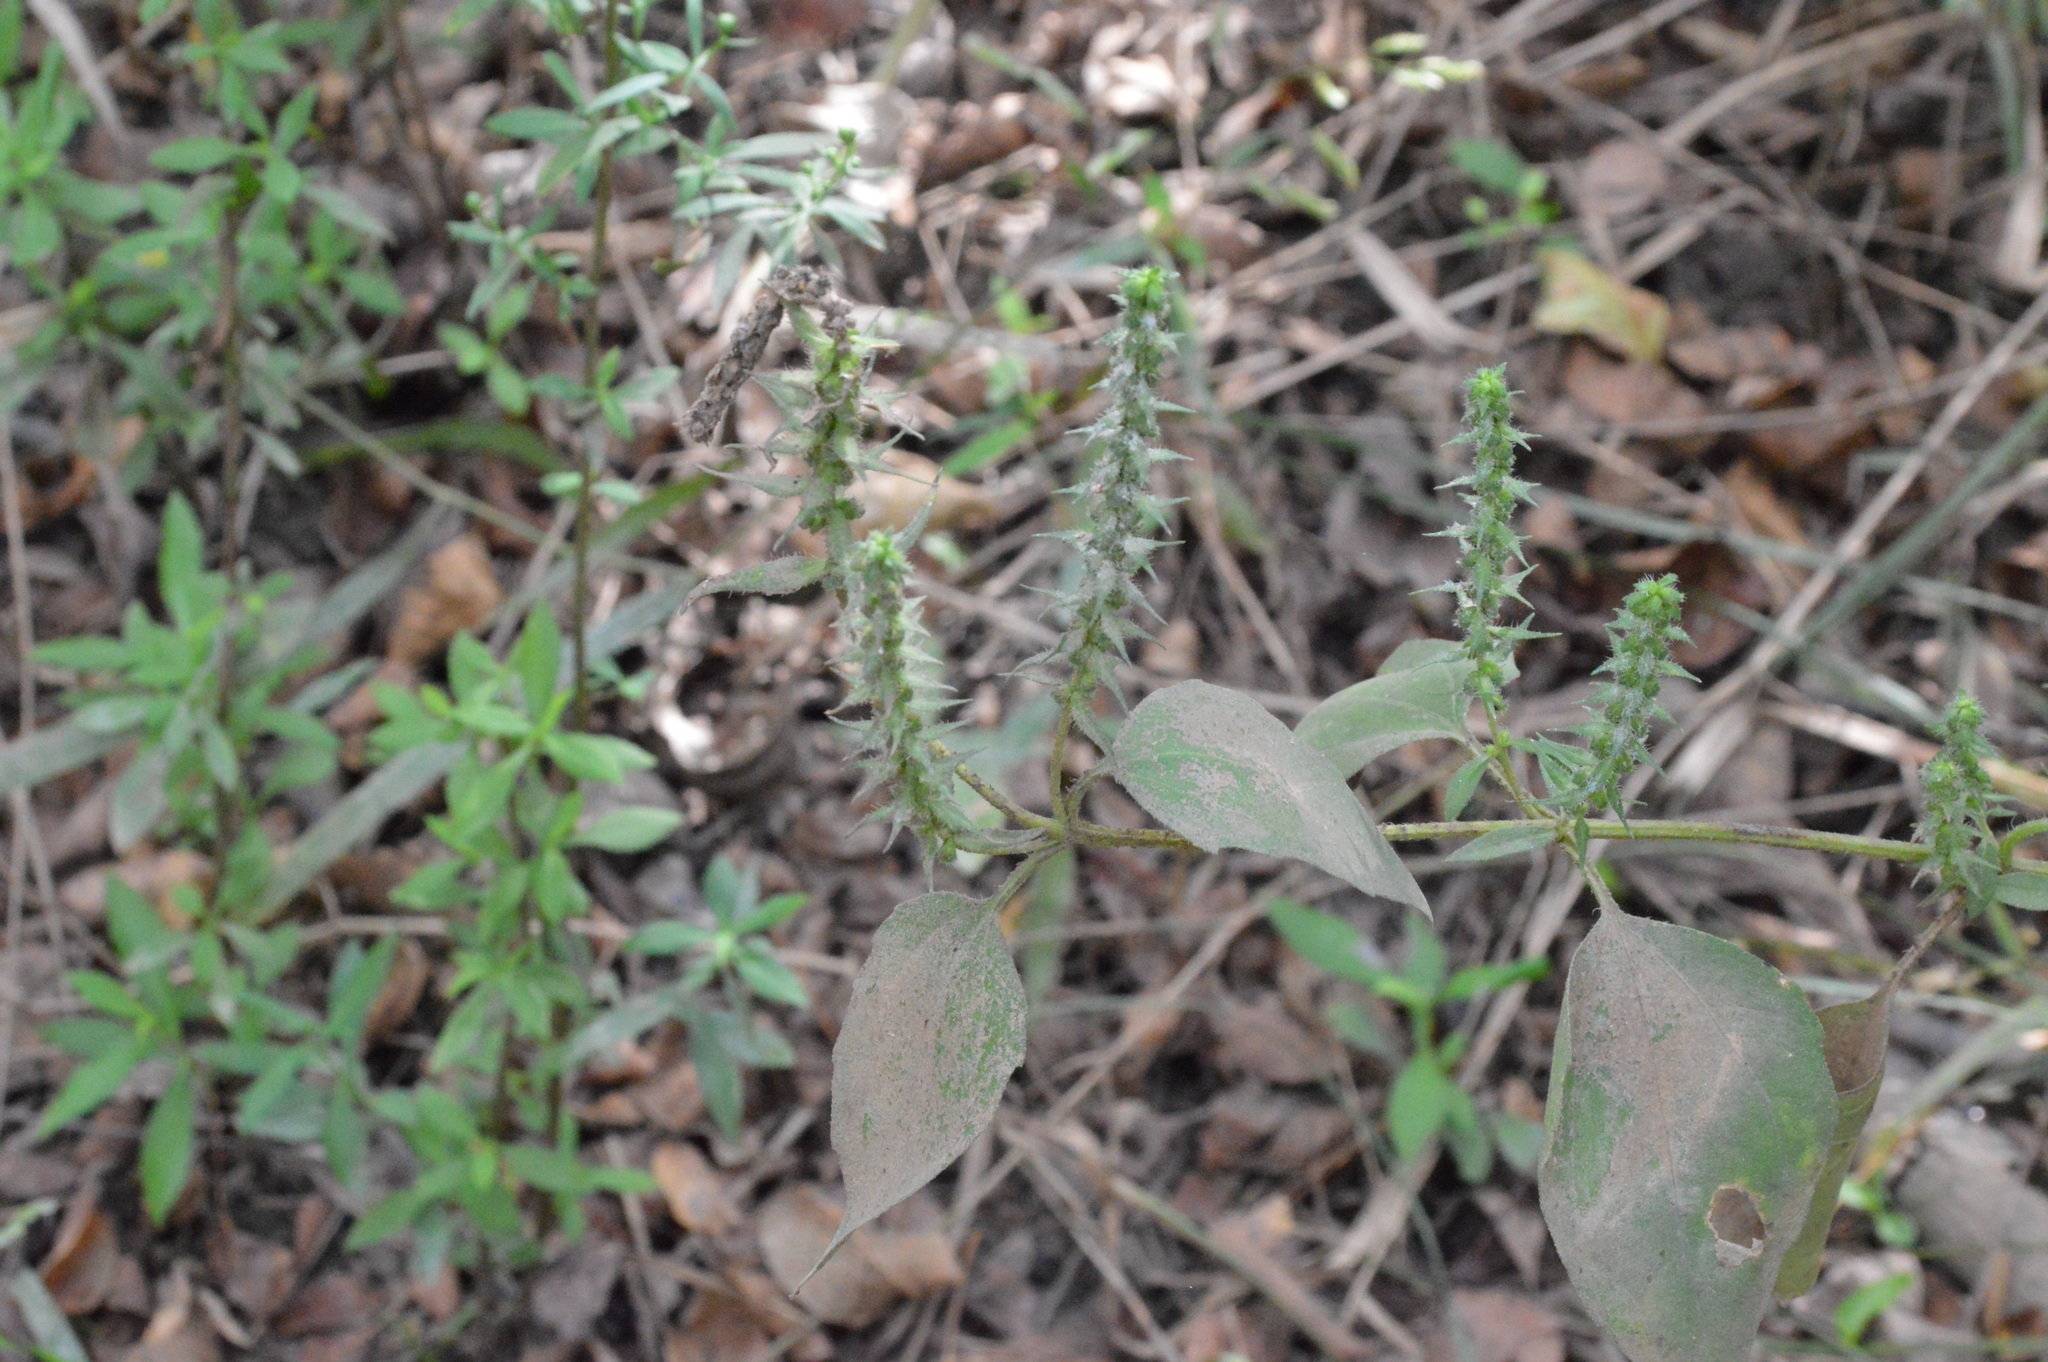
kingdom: Plantae
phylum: Tracheophyta
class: Magnoliopsida
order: Asterales
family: Asteraceae
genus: Iva
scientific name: Iva annua
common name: Marsh-elder
